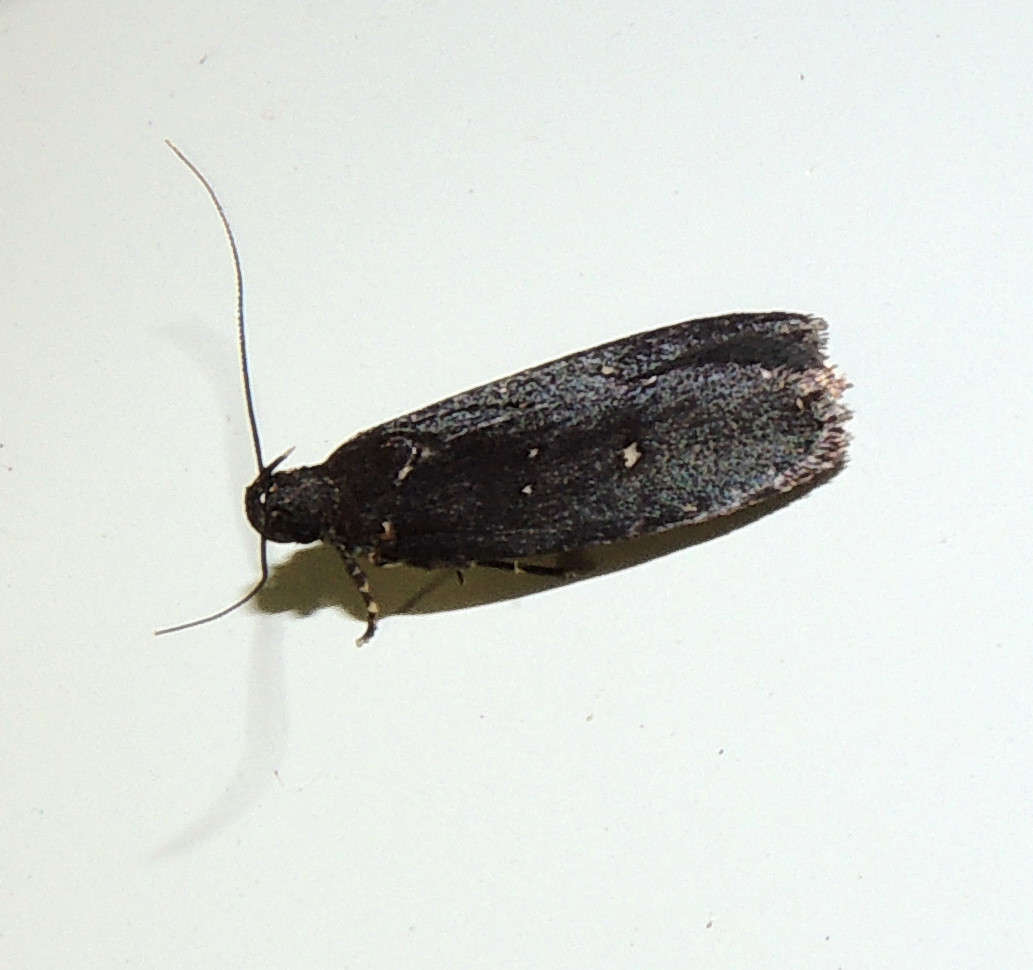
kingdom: Animalia
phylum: Arthropoda
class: Insecta
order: Lepidoptera
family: Gelechiidae
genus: Ardozyga
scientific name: Ardozyga nyctias
